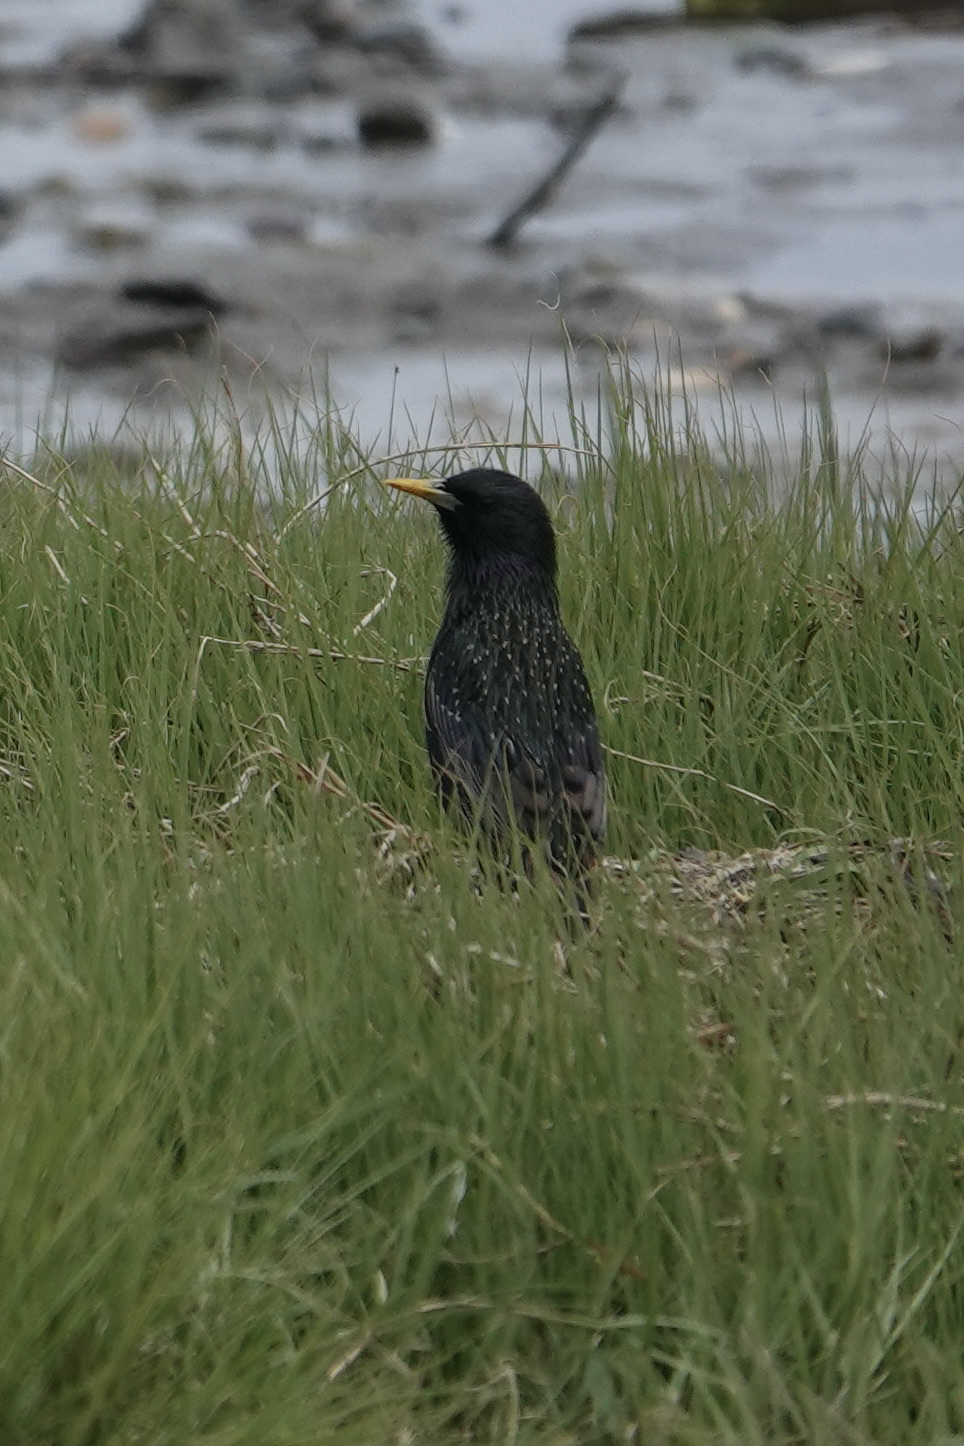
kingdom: Animalia
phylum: Chordata
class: Aves
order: Passeriformes
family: Sturnidae
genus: Sturnus
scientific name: Sturnus vulgaris
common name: Common starling
